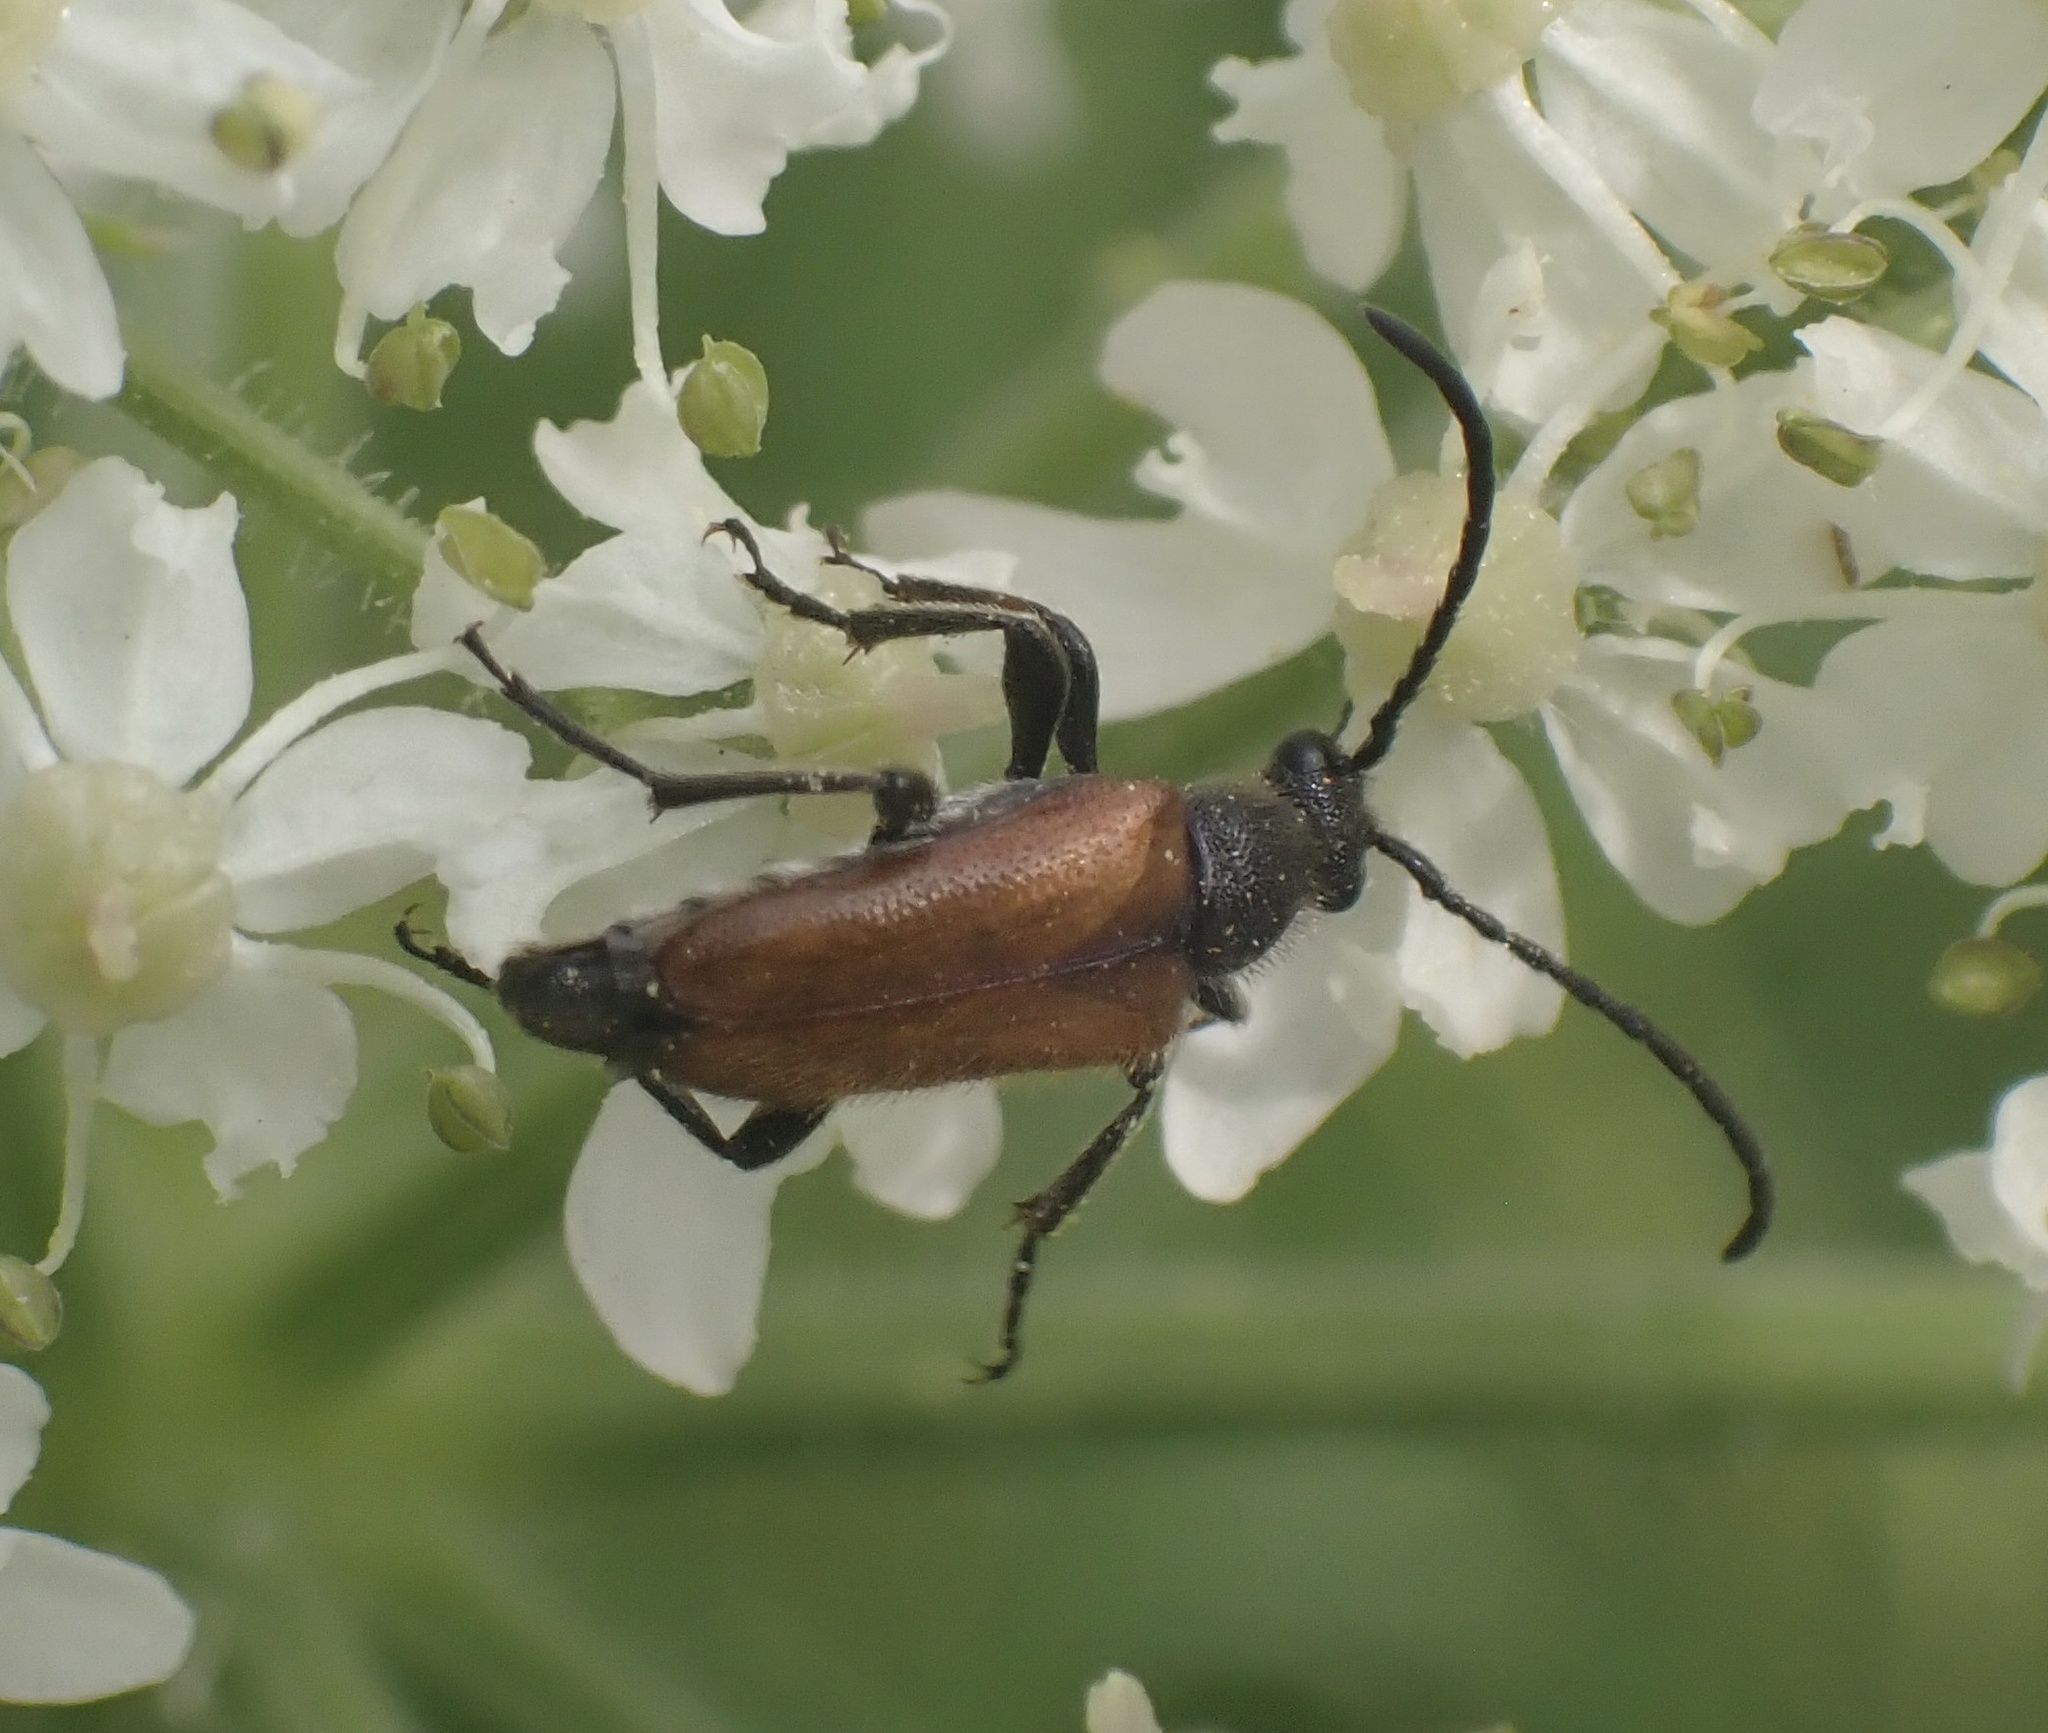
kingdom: Animalia
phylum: Arthropoda
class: Insecta
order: Coleoptera
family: Cerambycidae
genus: Pseudovadonia
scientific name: Pseudovadonia livida
